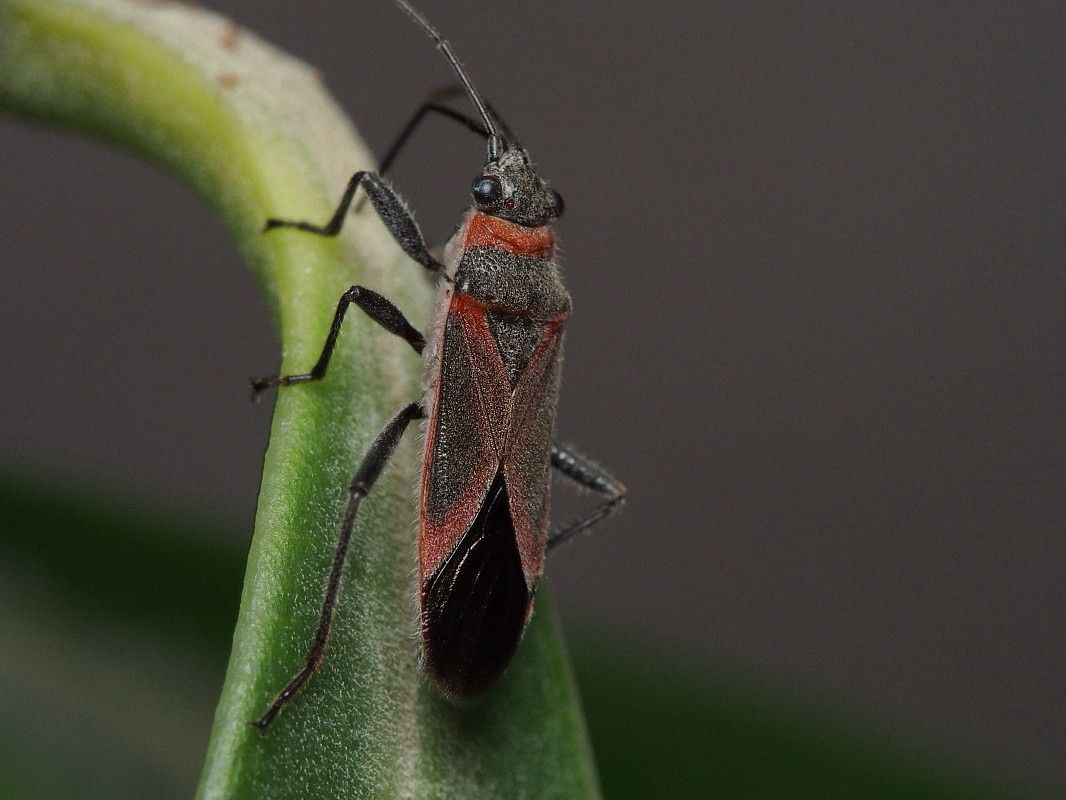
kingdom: Animalia
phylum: Arthropoda
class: Insecta
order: Hemiptera
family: Lygaeidae
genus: Arocatus
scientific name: Arocatus rusticus
